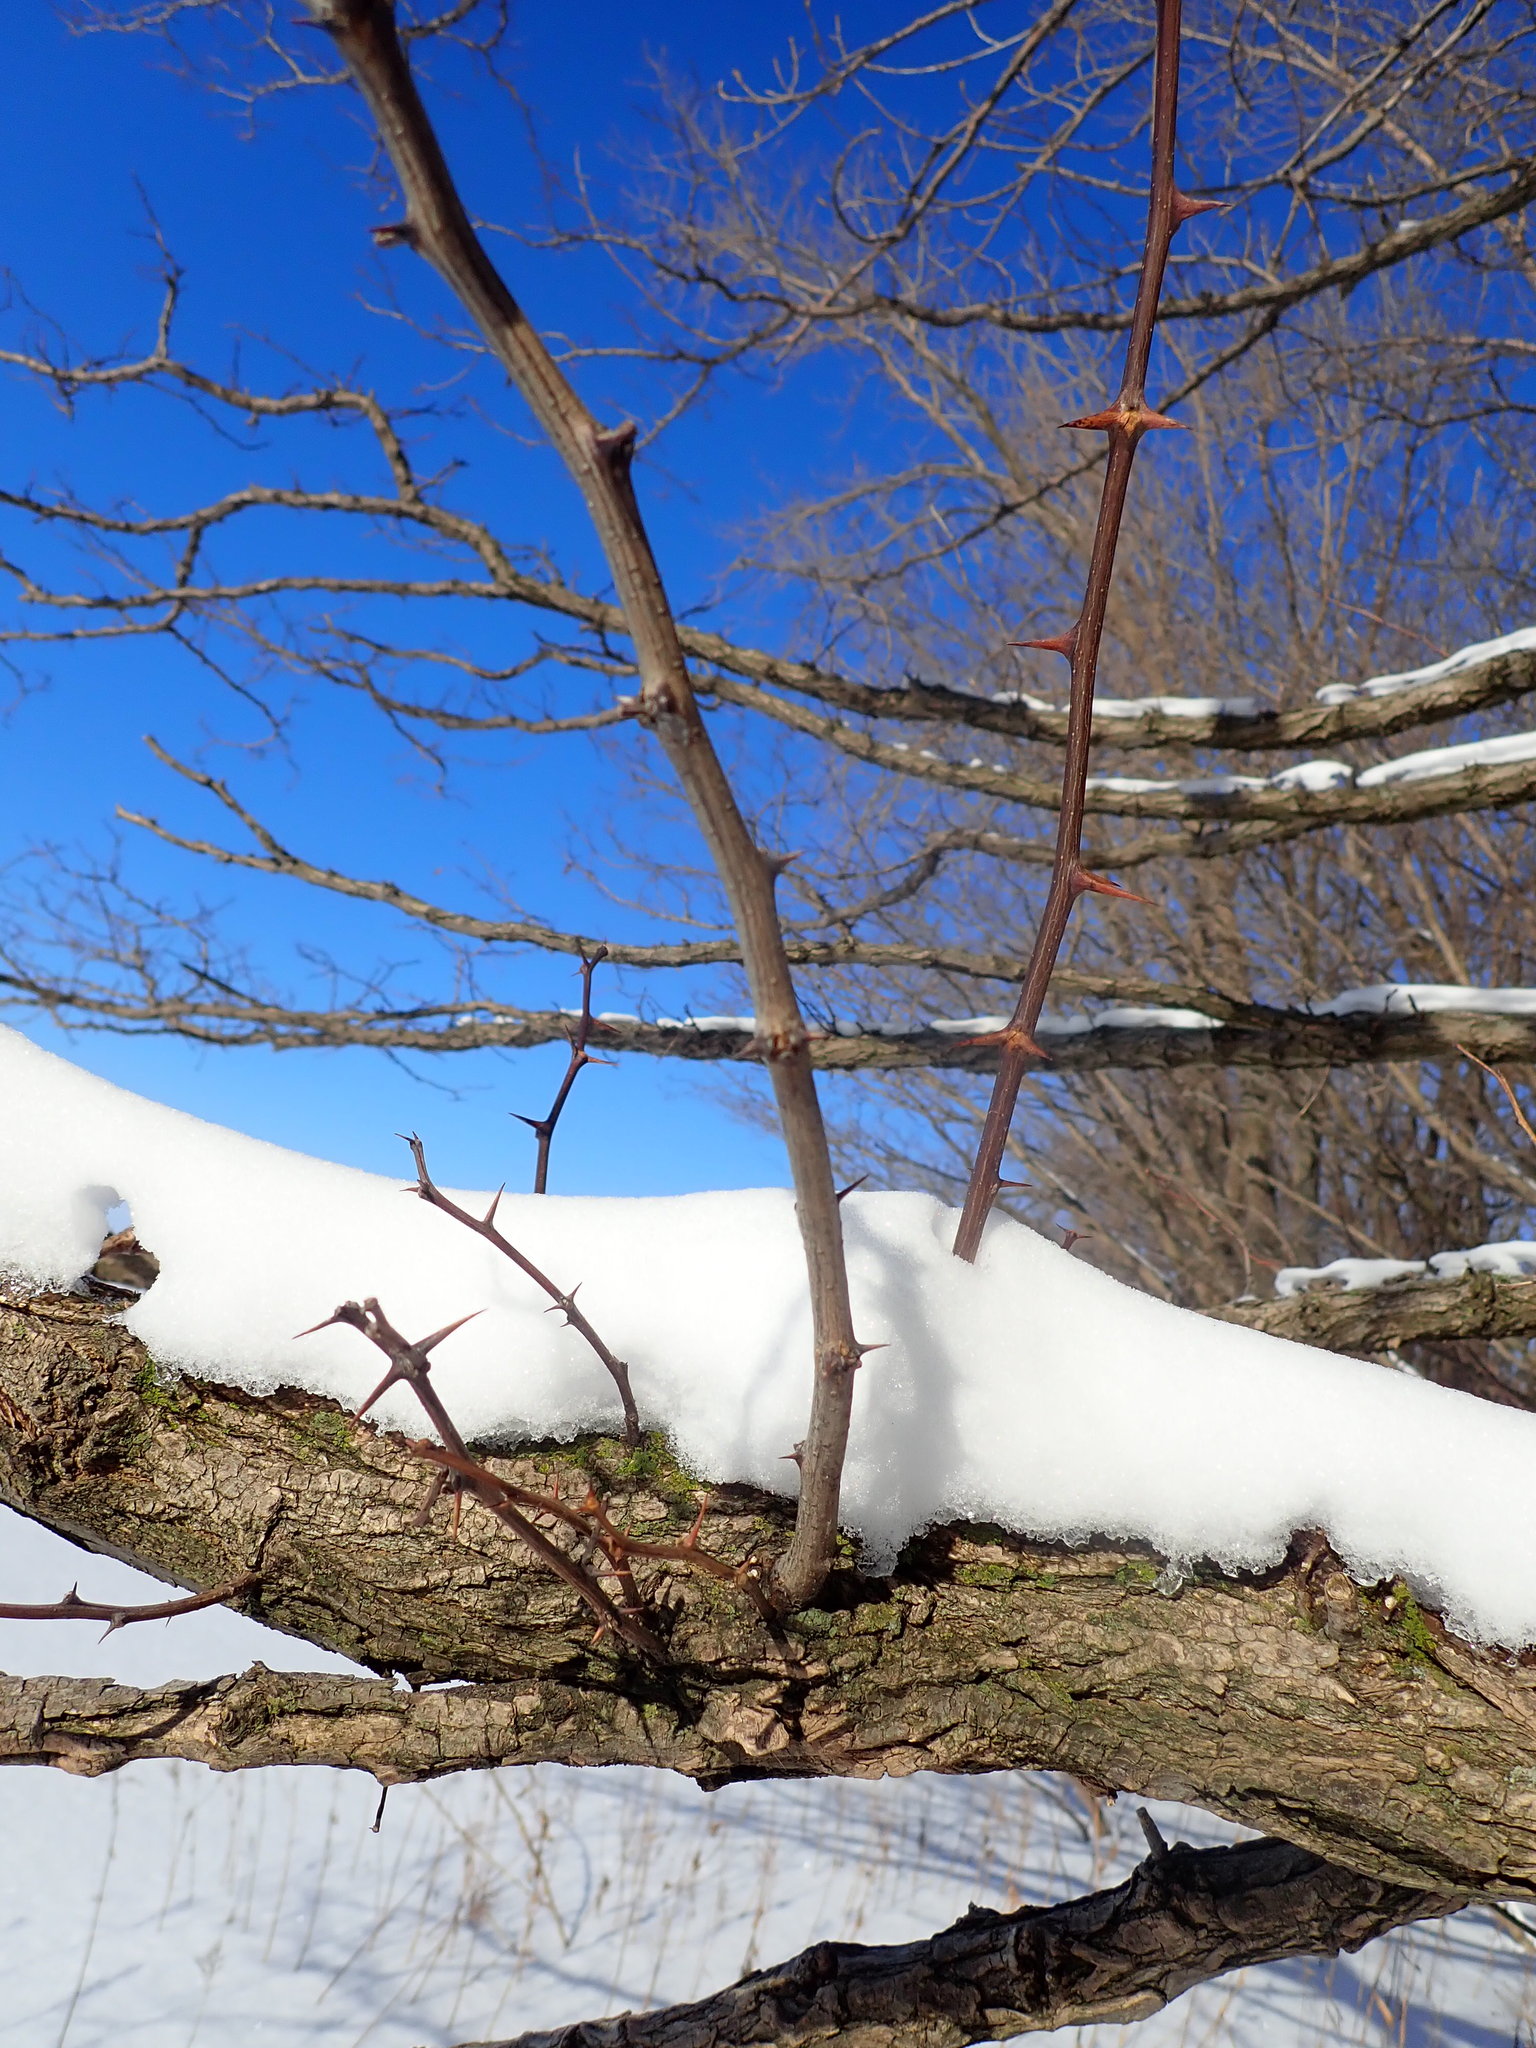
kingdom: Plantae
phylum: Tracheophyta
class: Magnoliopsida
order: Fabales
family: Fabaceae
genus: Robinia
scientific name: Robinia pseudoacacia
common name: Black locust
